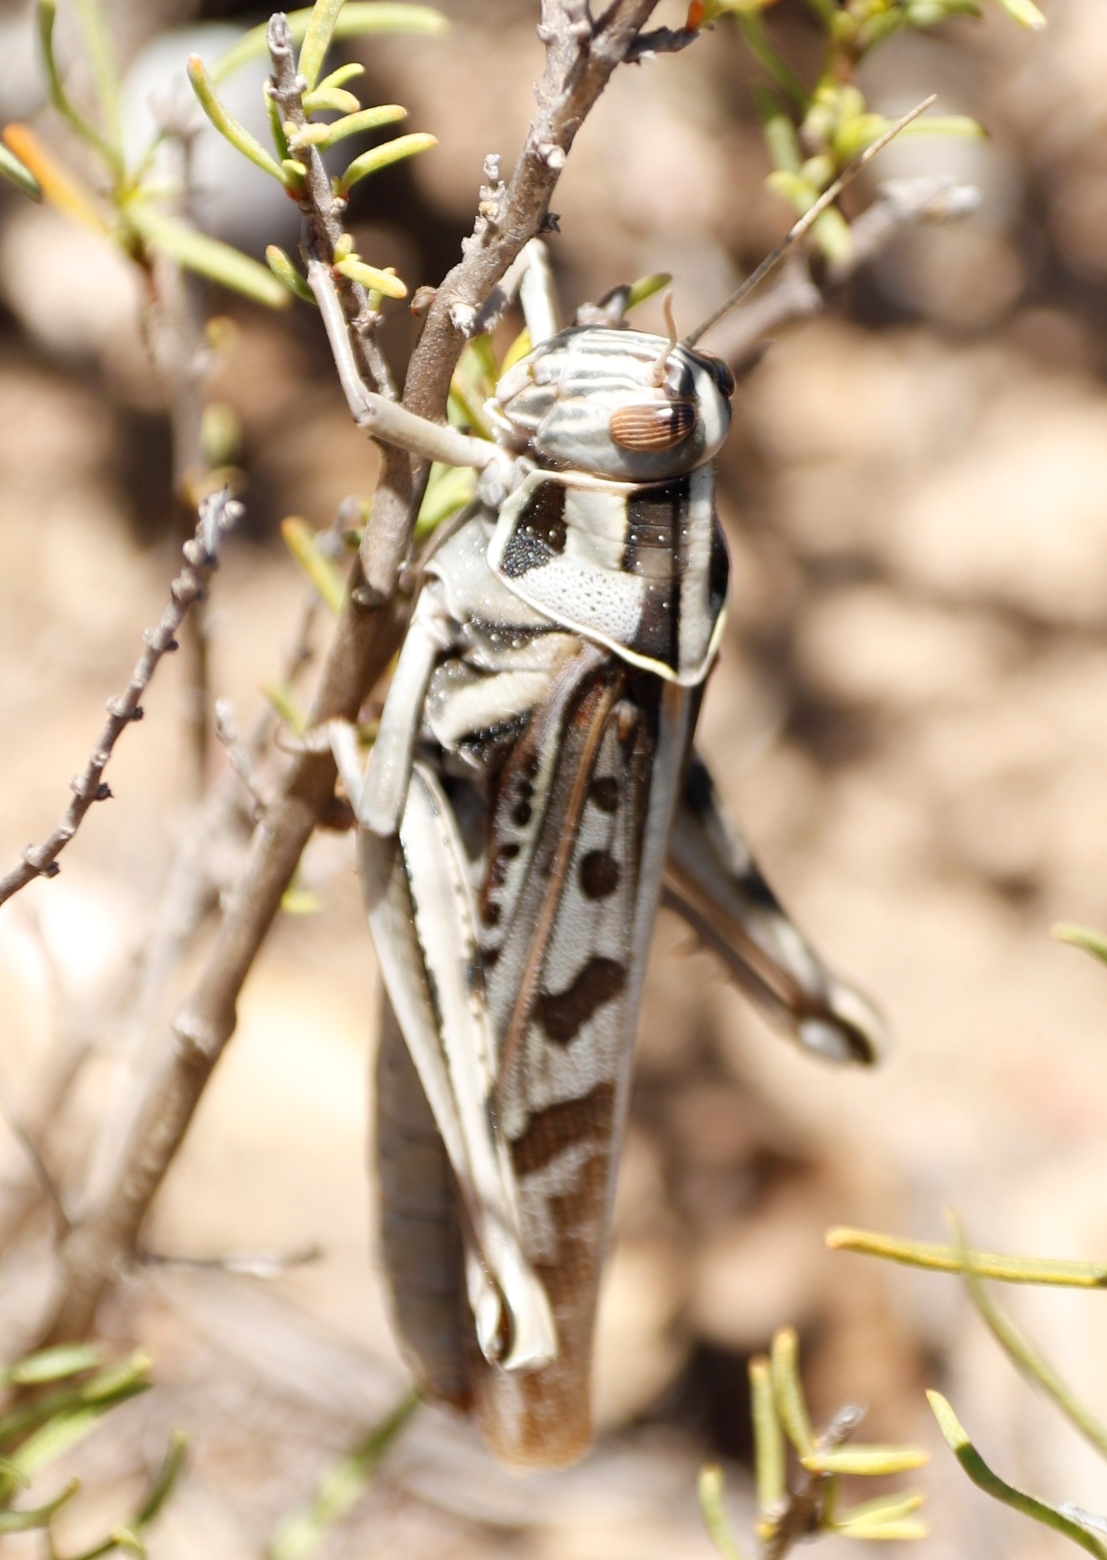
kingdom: Animalia
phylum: Arthropoda
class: Insecta
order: Orthoptera
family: Acrididae
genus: Cyrtacanthacris
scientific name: Cyrtacanthacris tatarica
